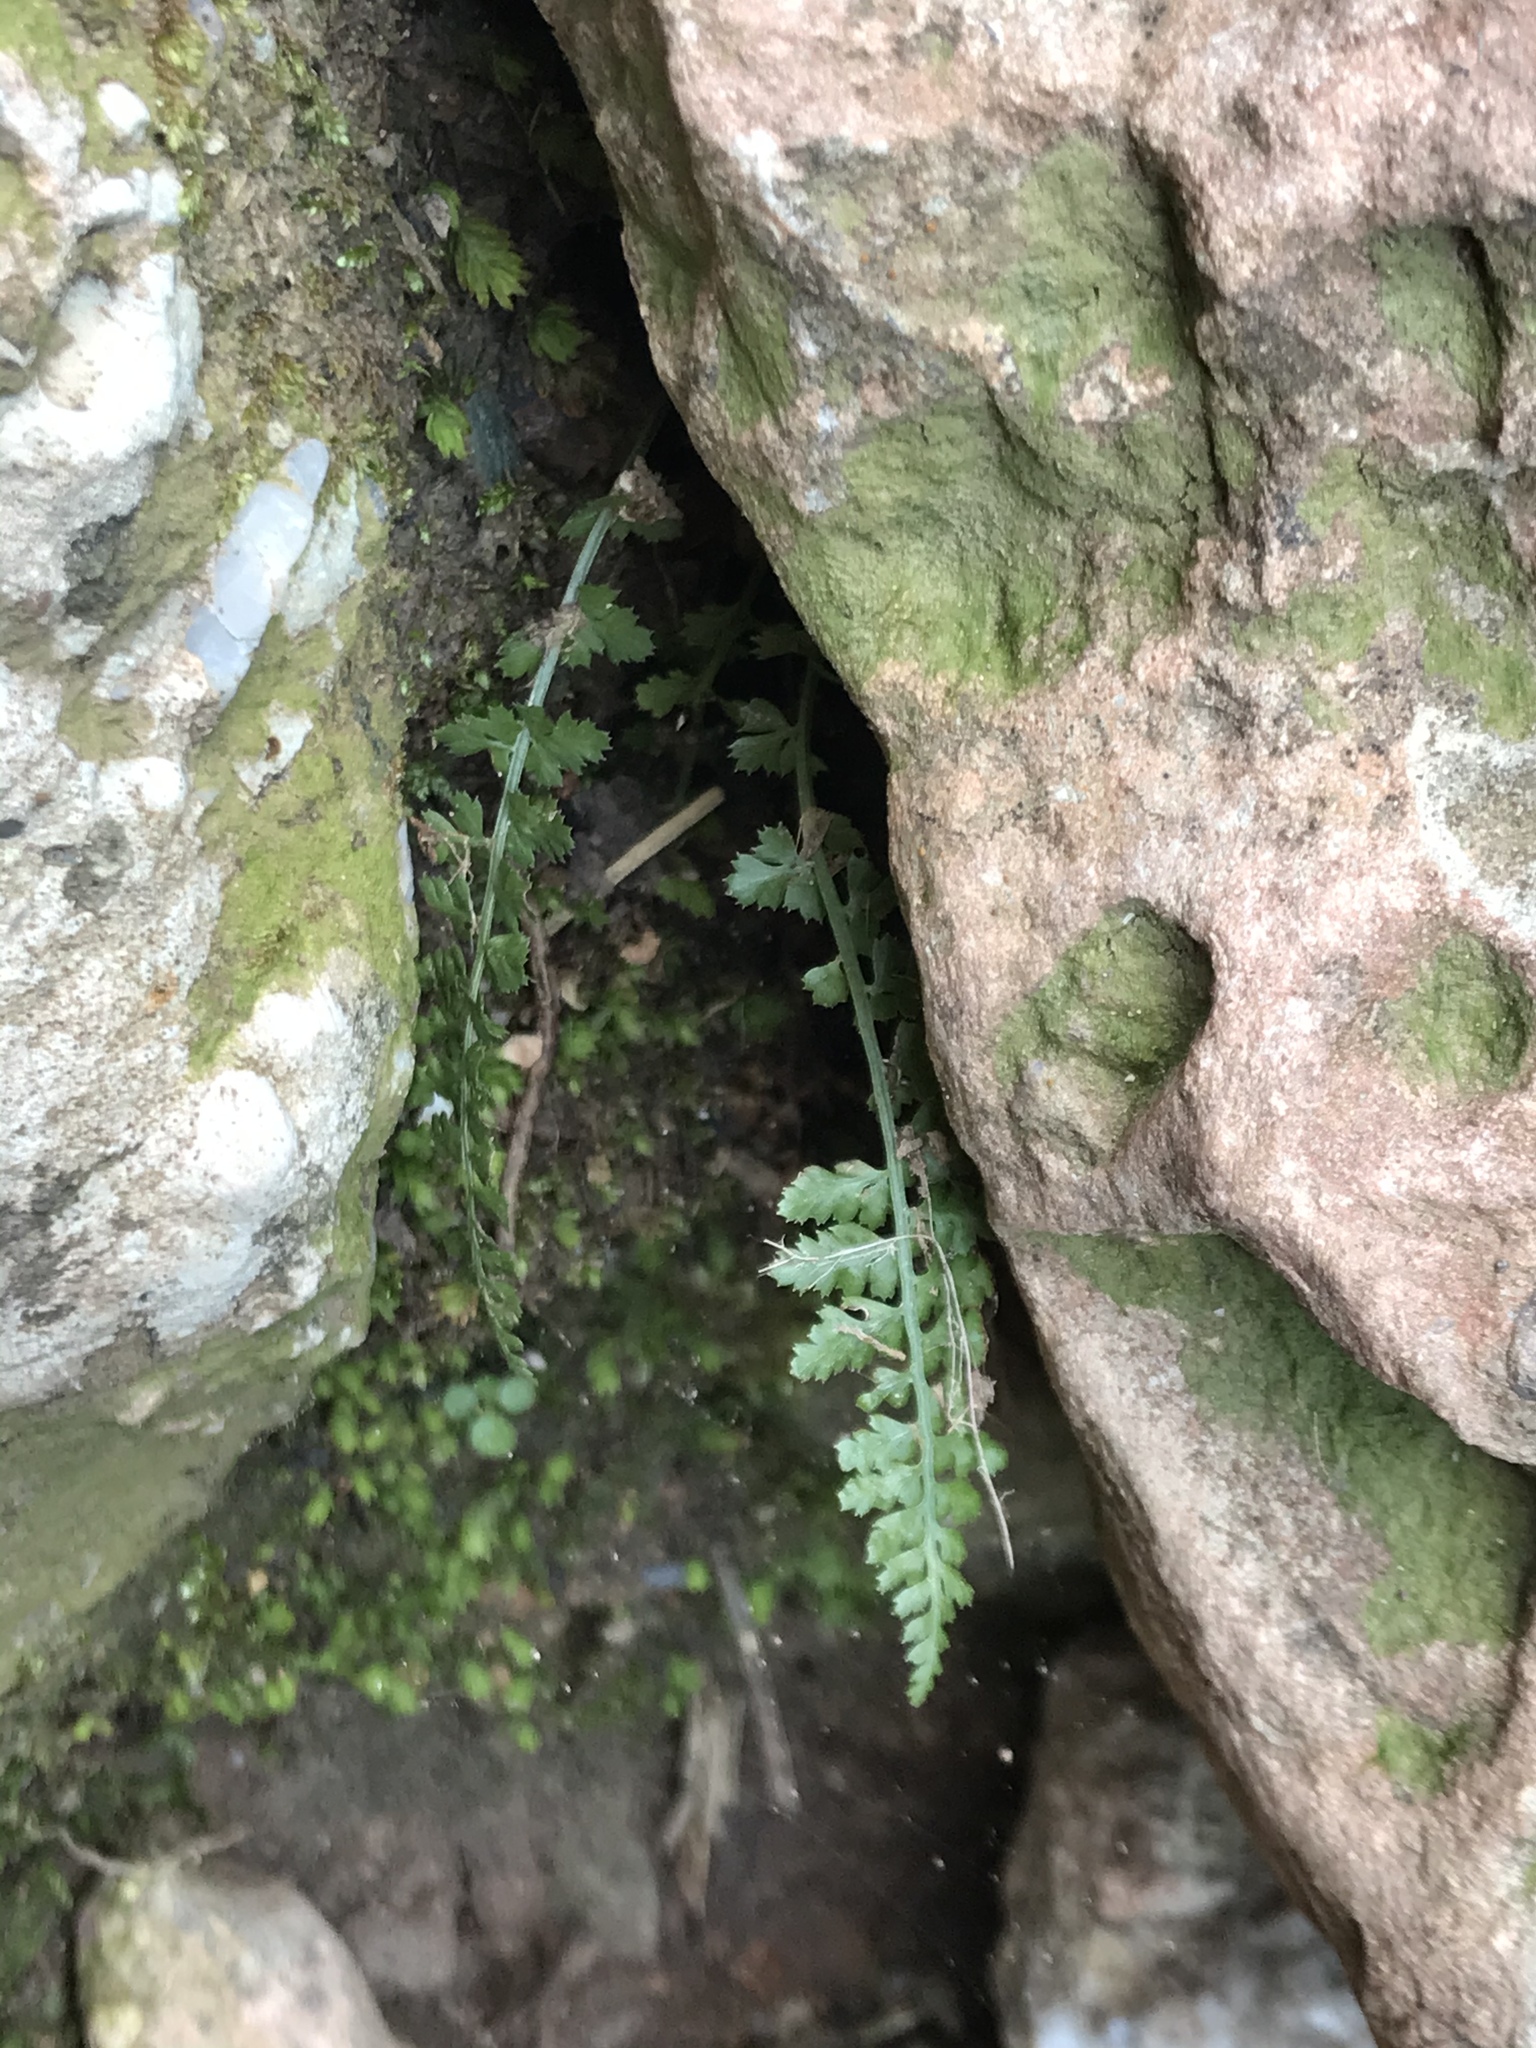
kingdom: Plantae
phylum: Tracheophyta
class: Polypodiopsida
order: Polypodiales
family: Aspleniaceae
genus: Asplenium
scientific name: Asplenium fontanum
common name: Fountain spleenwort
